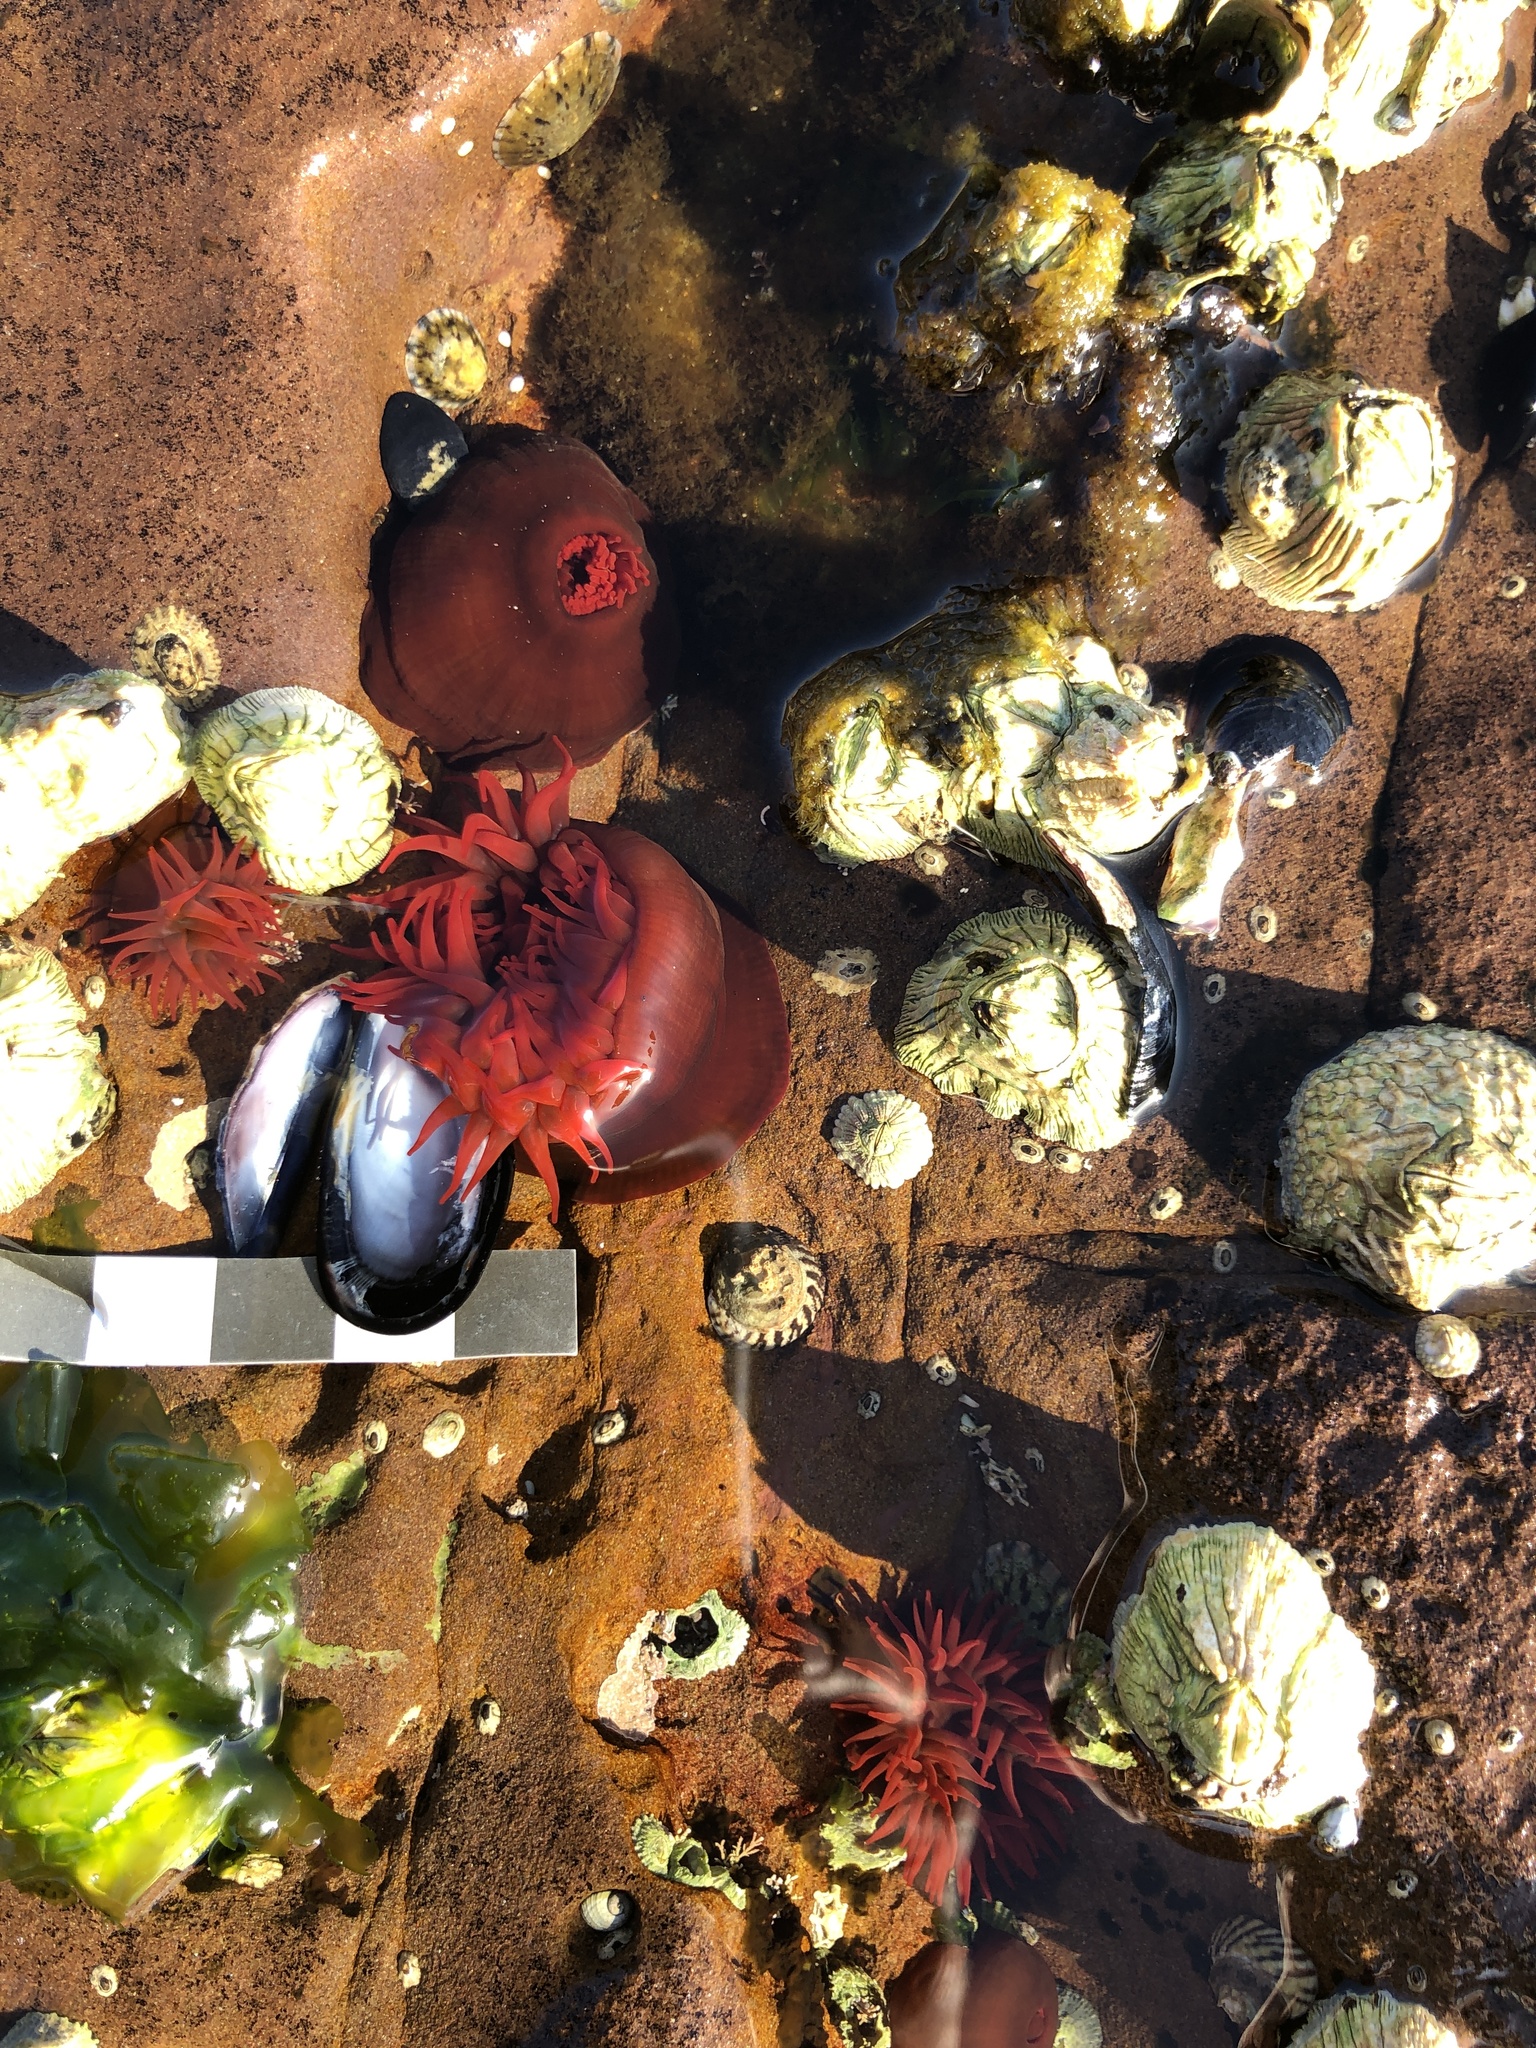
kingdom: Animalia
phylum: Cnidaria
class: Anthozoa
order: Actiniaria
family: Actiniidae
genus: Actinia
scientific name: Actinia tenebrosa
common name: Waratah anemone
